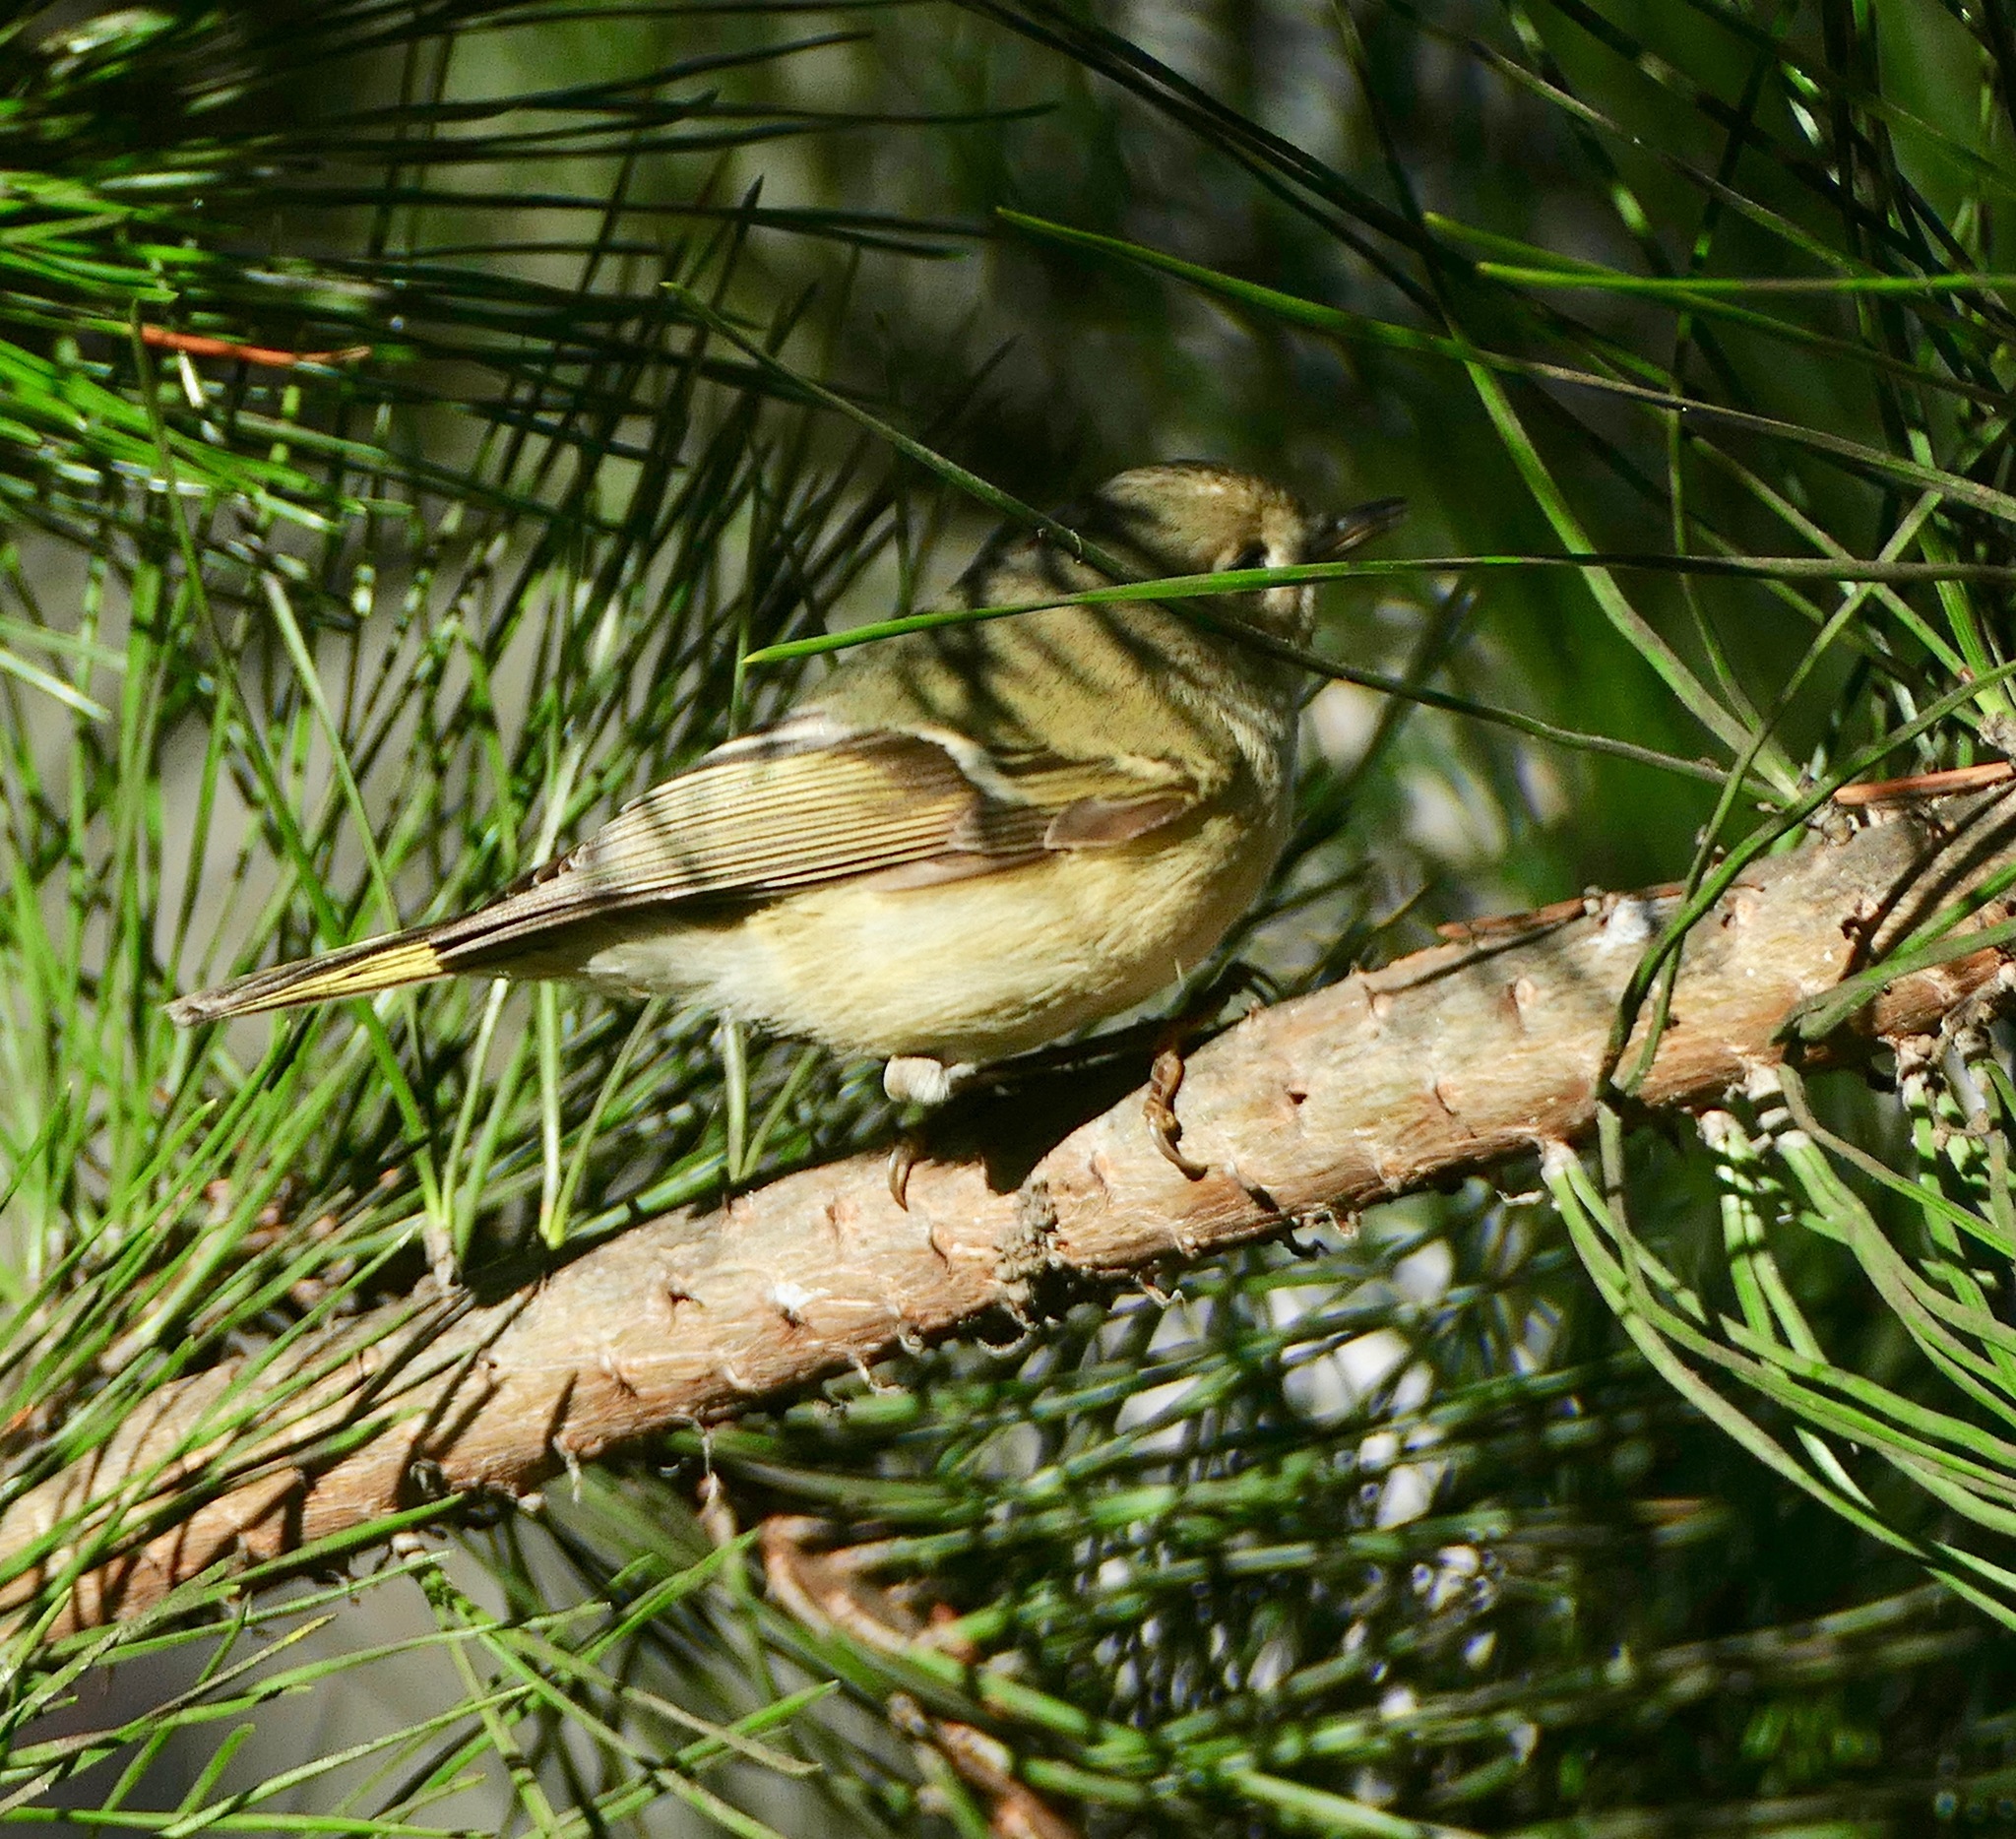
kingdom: Animalia
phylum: Chordata
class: Aves
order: Passeriformes
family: Regulidae
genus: Regulus
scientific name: Regulus calendula
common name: Ruby-crowned kinglet
